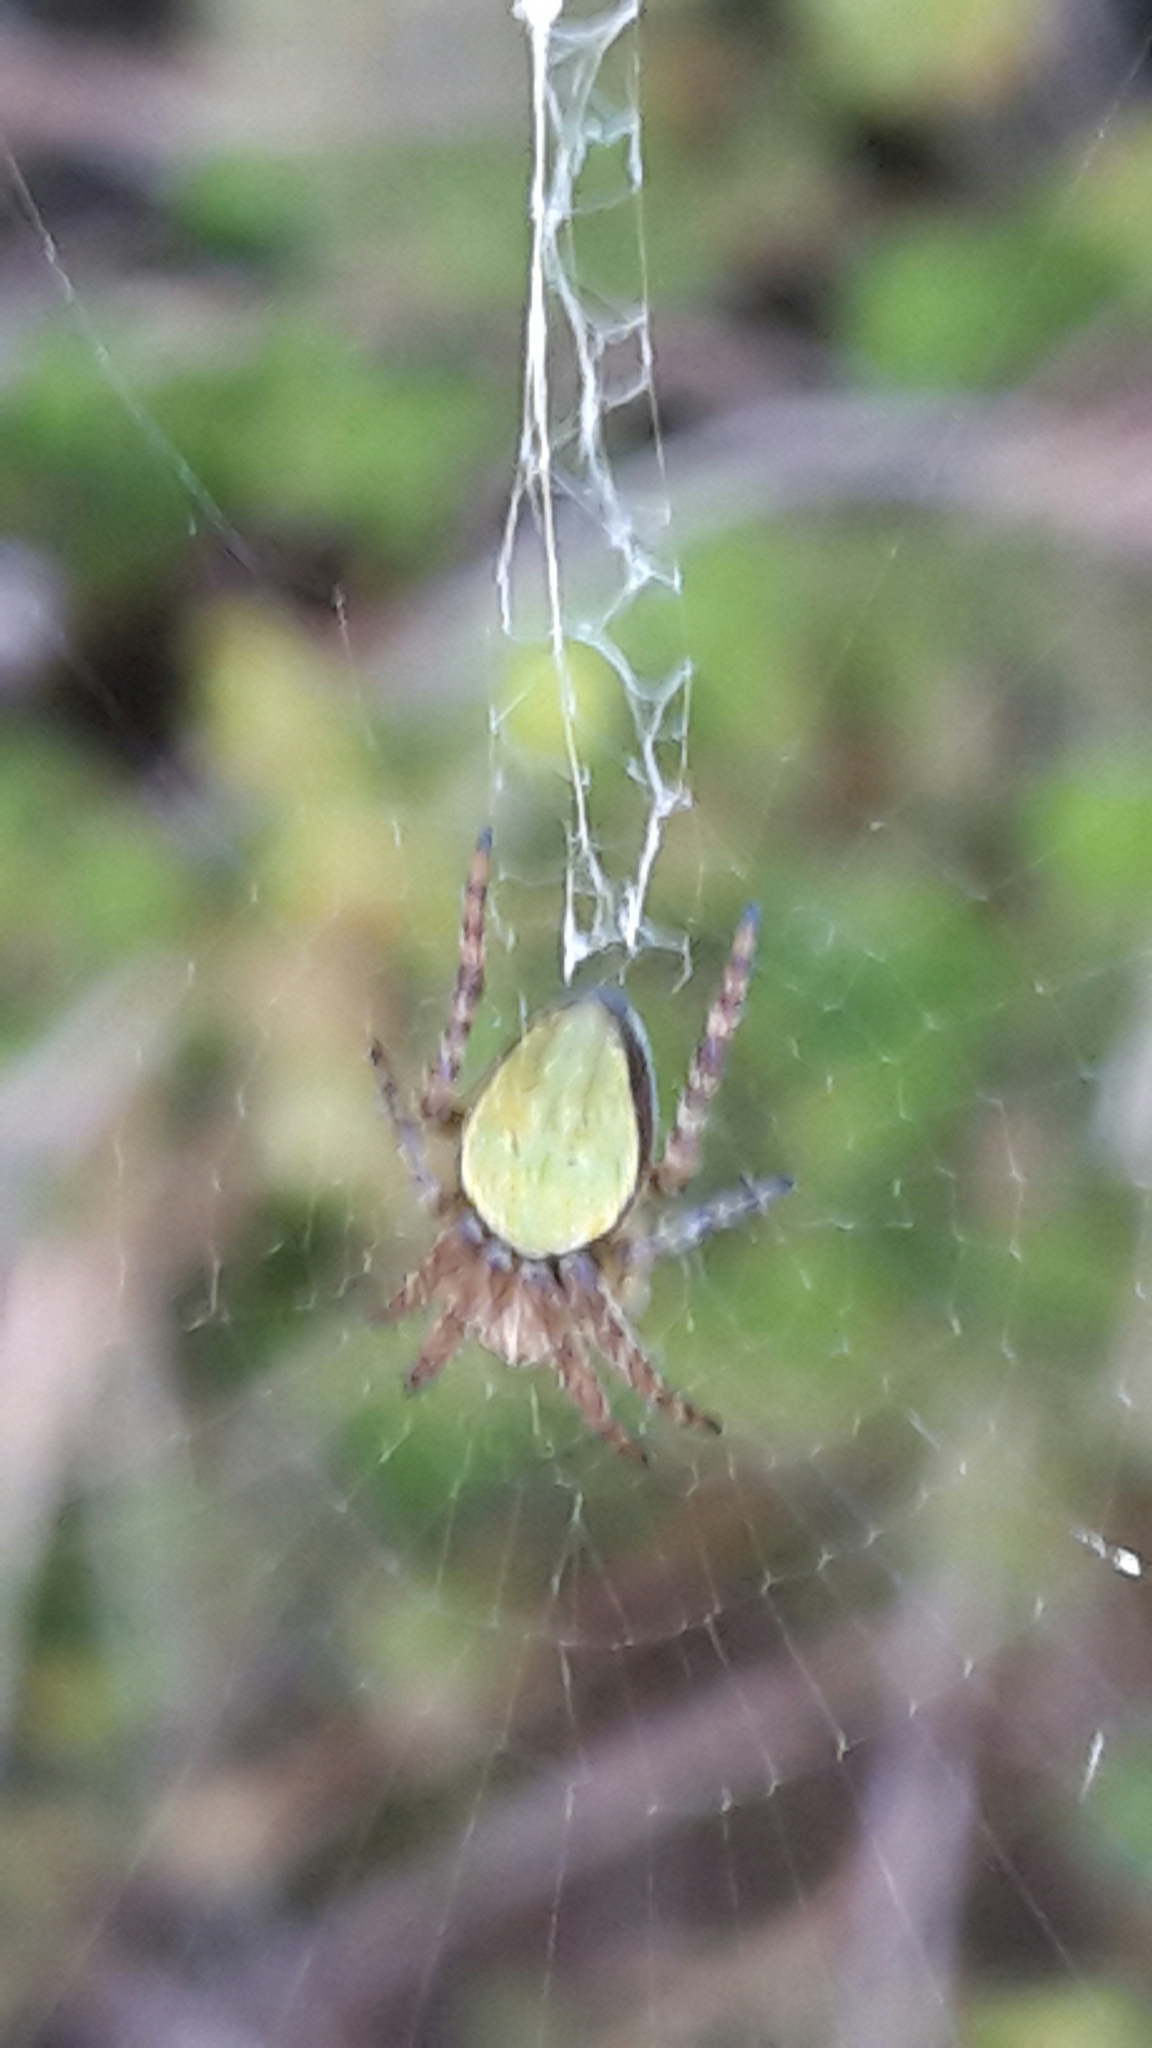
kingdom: Animalia
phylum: Arthropoda
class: Arachnida
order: Araneae
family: Araneidae
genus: Colaranea
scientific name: Colaranea viriditas
